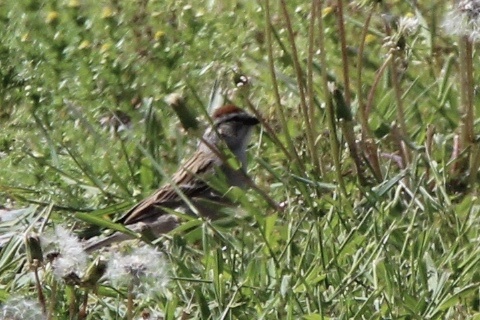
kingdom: Animalia
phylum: Chordata
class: Aves
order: Passeriformes
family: Passerellidae
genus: Spizella
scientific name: Spizella passerina
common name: Chipping sparrow
